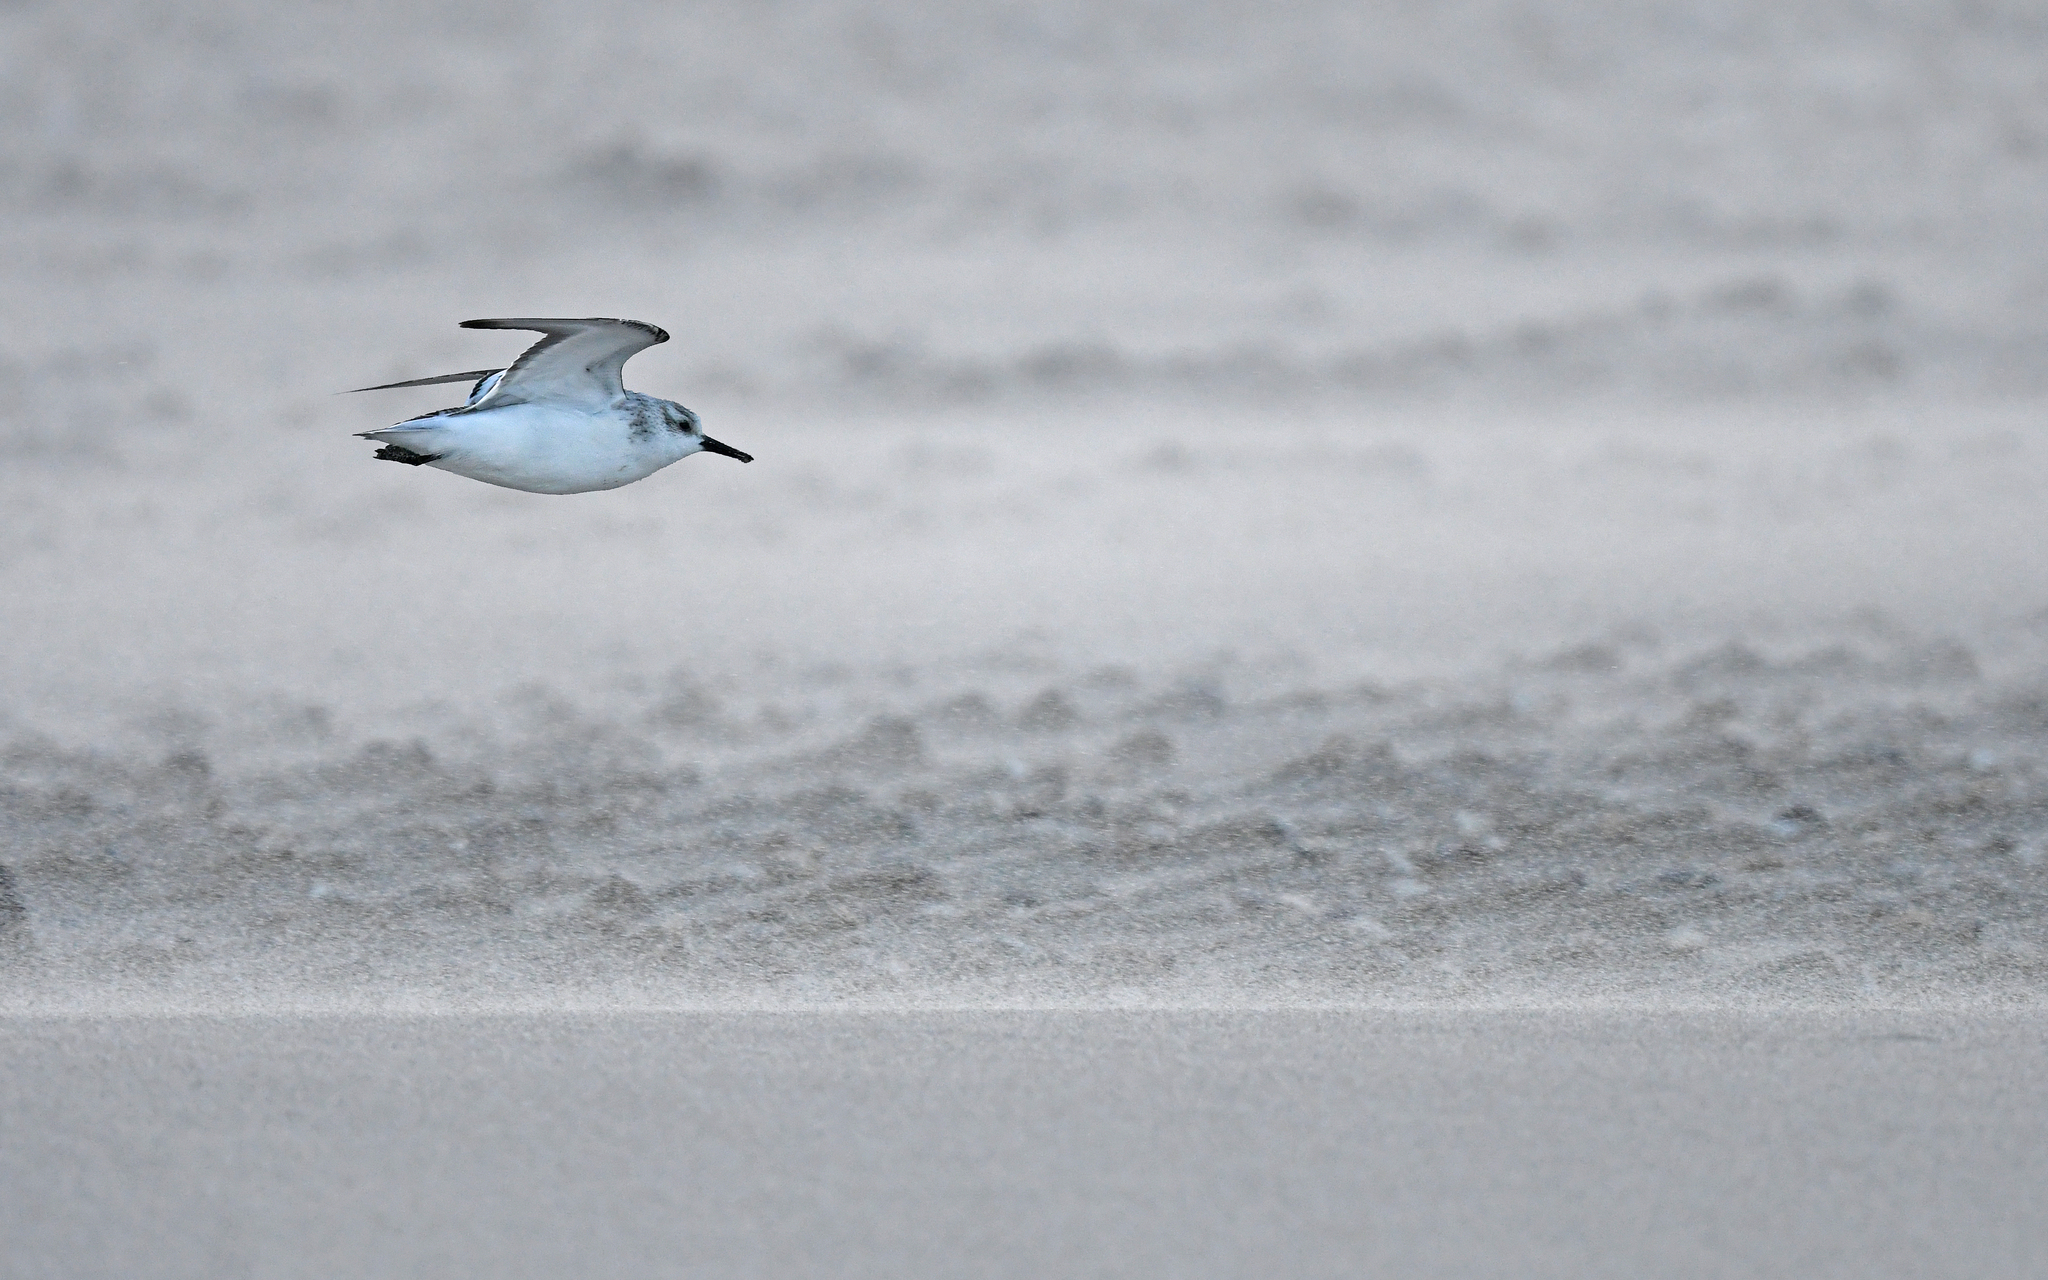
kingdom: Animalia
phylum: Chordata
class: Aves
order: Charadriiformes
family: Scolopacidae
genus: Calidris
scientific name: Calidris alba
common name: Sanderling
